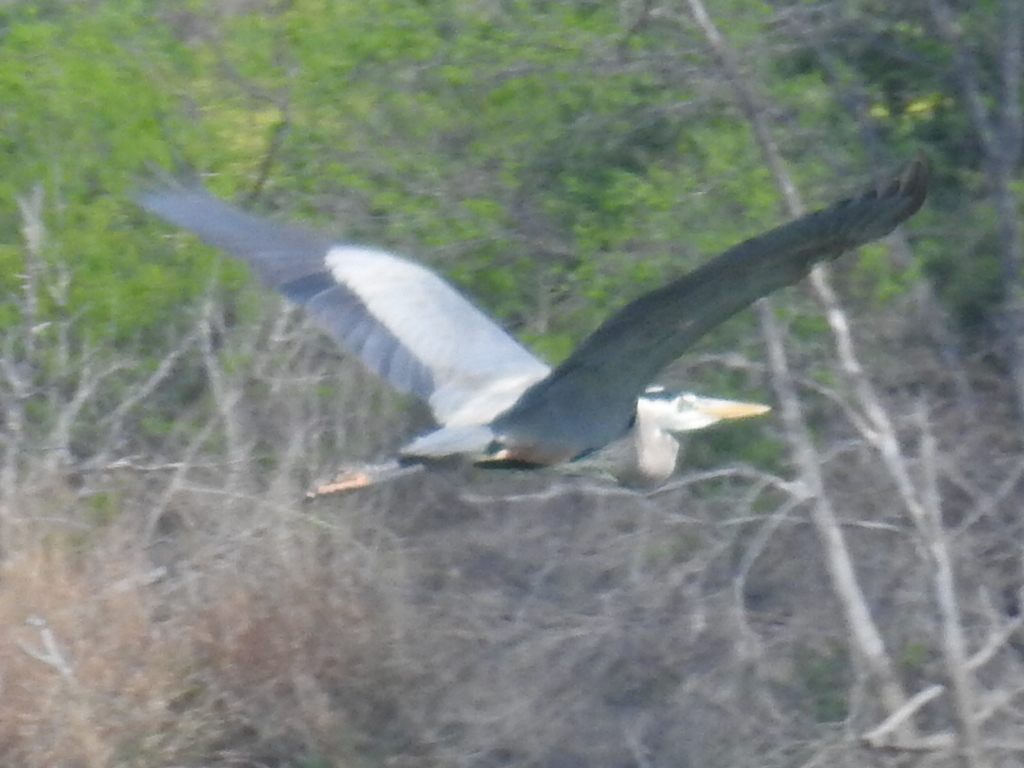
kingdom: Animalia
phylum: Chordata
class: Aves
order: Pelecaniformes
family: Ardeidae
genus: Ardea
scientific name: Ardea herodias
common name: Great blue heron
